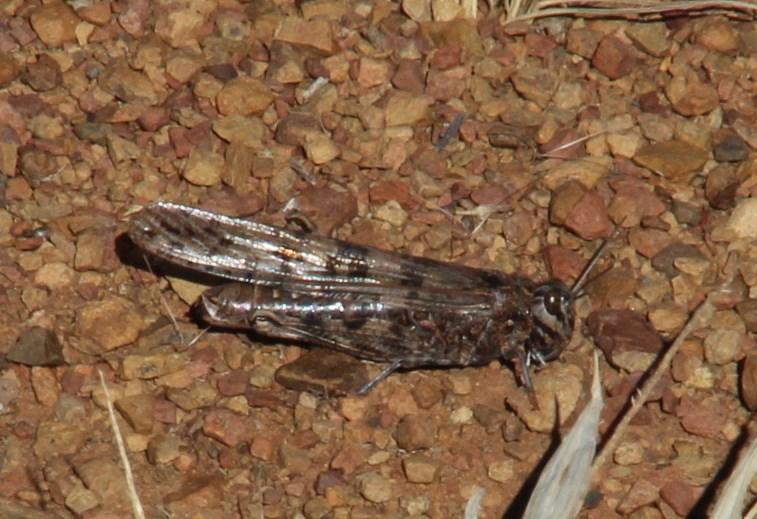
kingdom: Animalia
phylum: Arthropoda
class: Insecta
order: Orthoptera
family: Acrididae
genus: Locustana
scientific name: Locustana pardalina
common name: Brown locust
